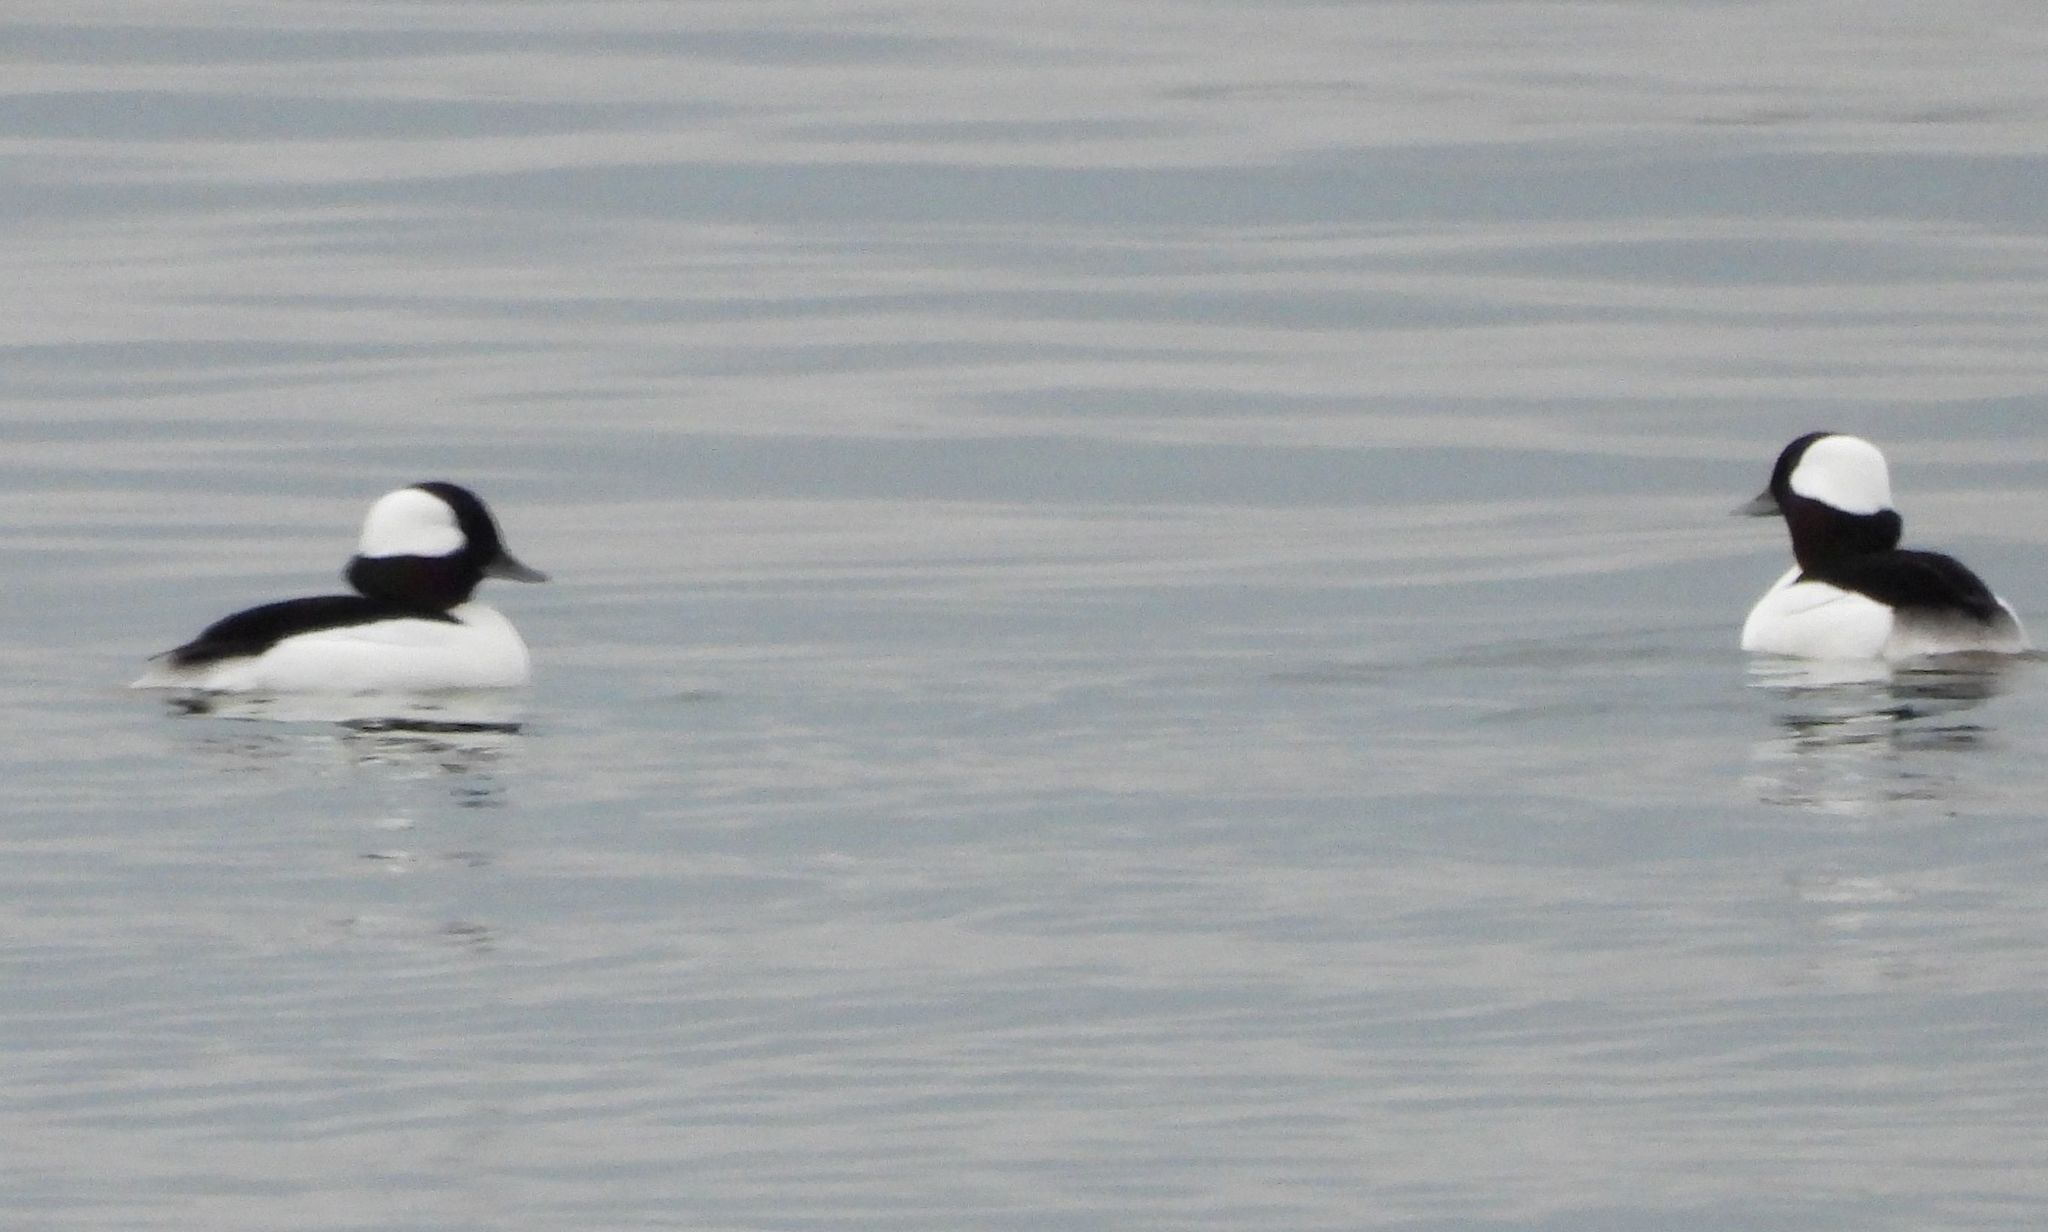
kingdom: Animalia
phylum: Chordata
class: Aves
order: Anseriformes
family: Anatidae
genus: Bucephala
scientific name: Bucephala albeola
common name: Bufflehead
